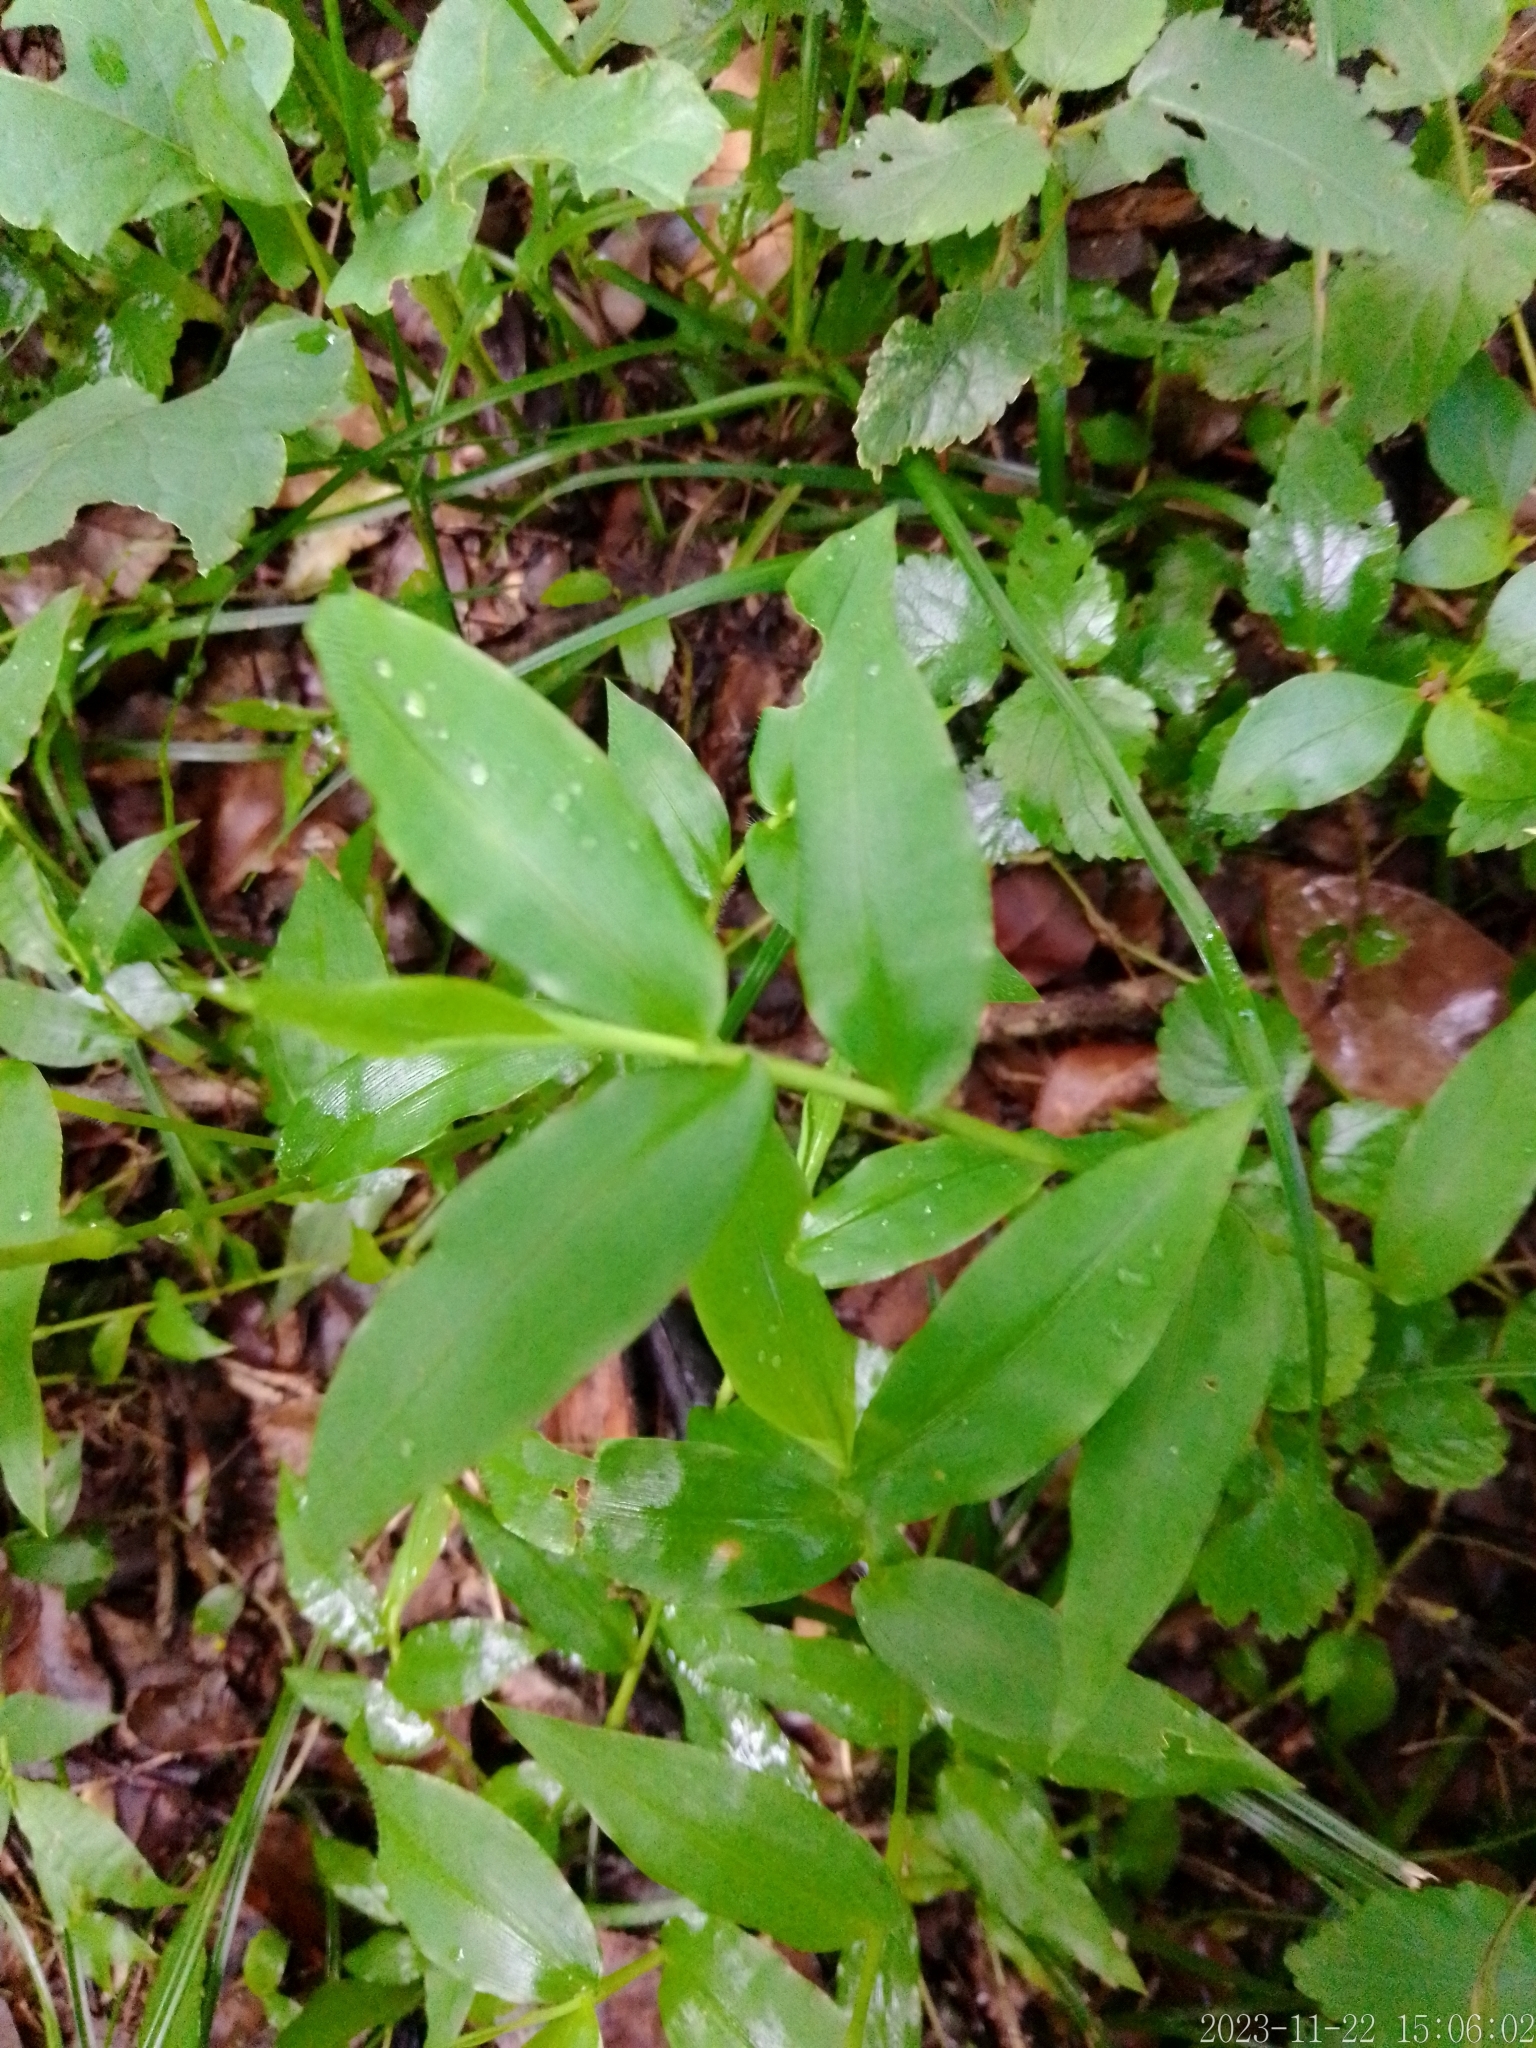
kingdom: Plantae
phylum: Tracheophyta
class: Liliopsida
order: Poales
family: Poaceae
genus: Oplismenus
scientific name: Oplismenus hirtellus
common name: Basketgrass
